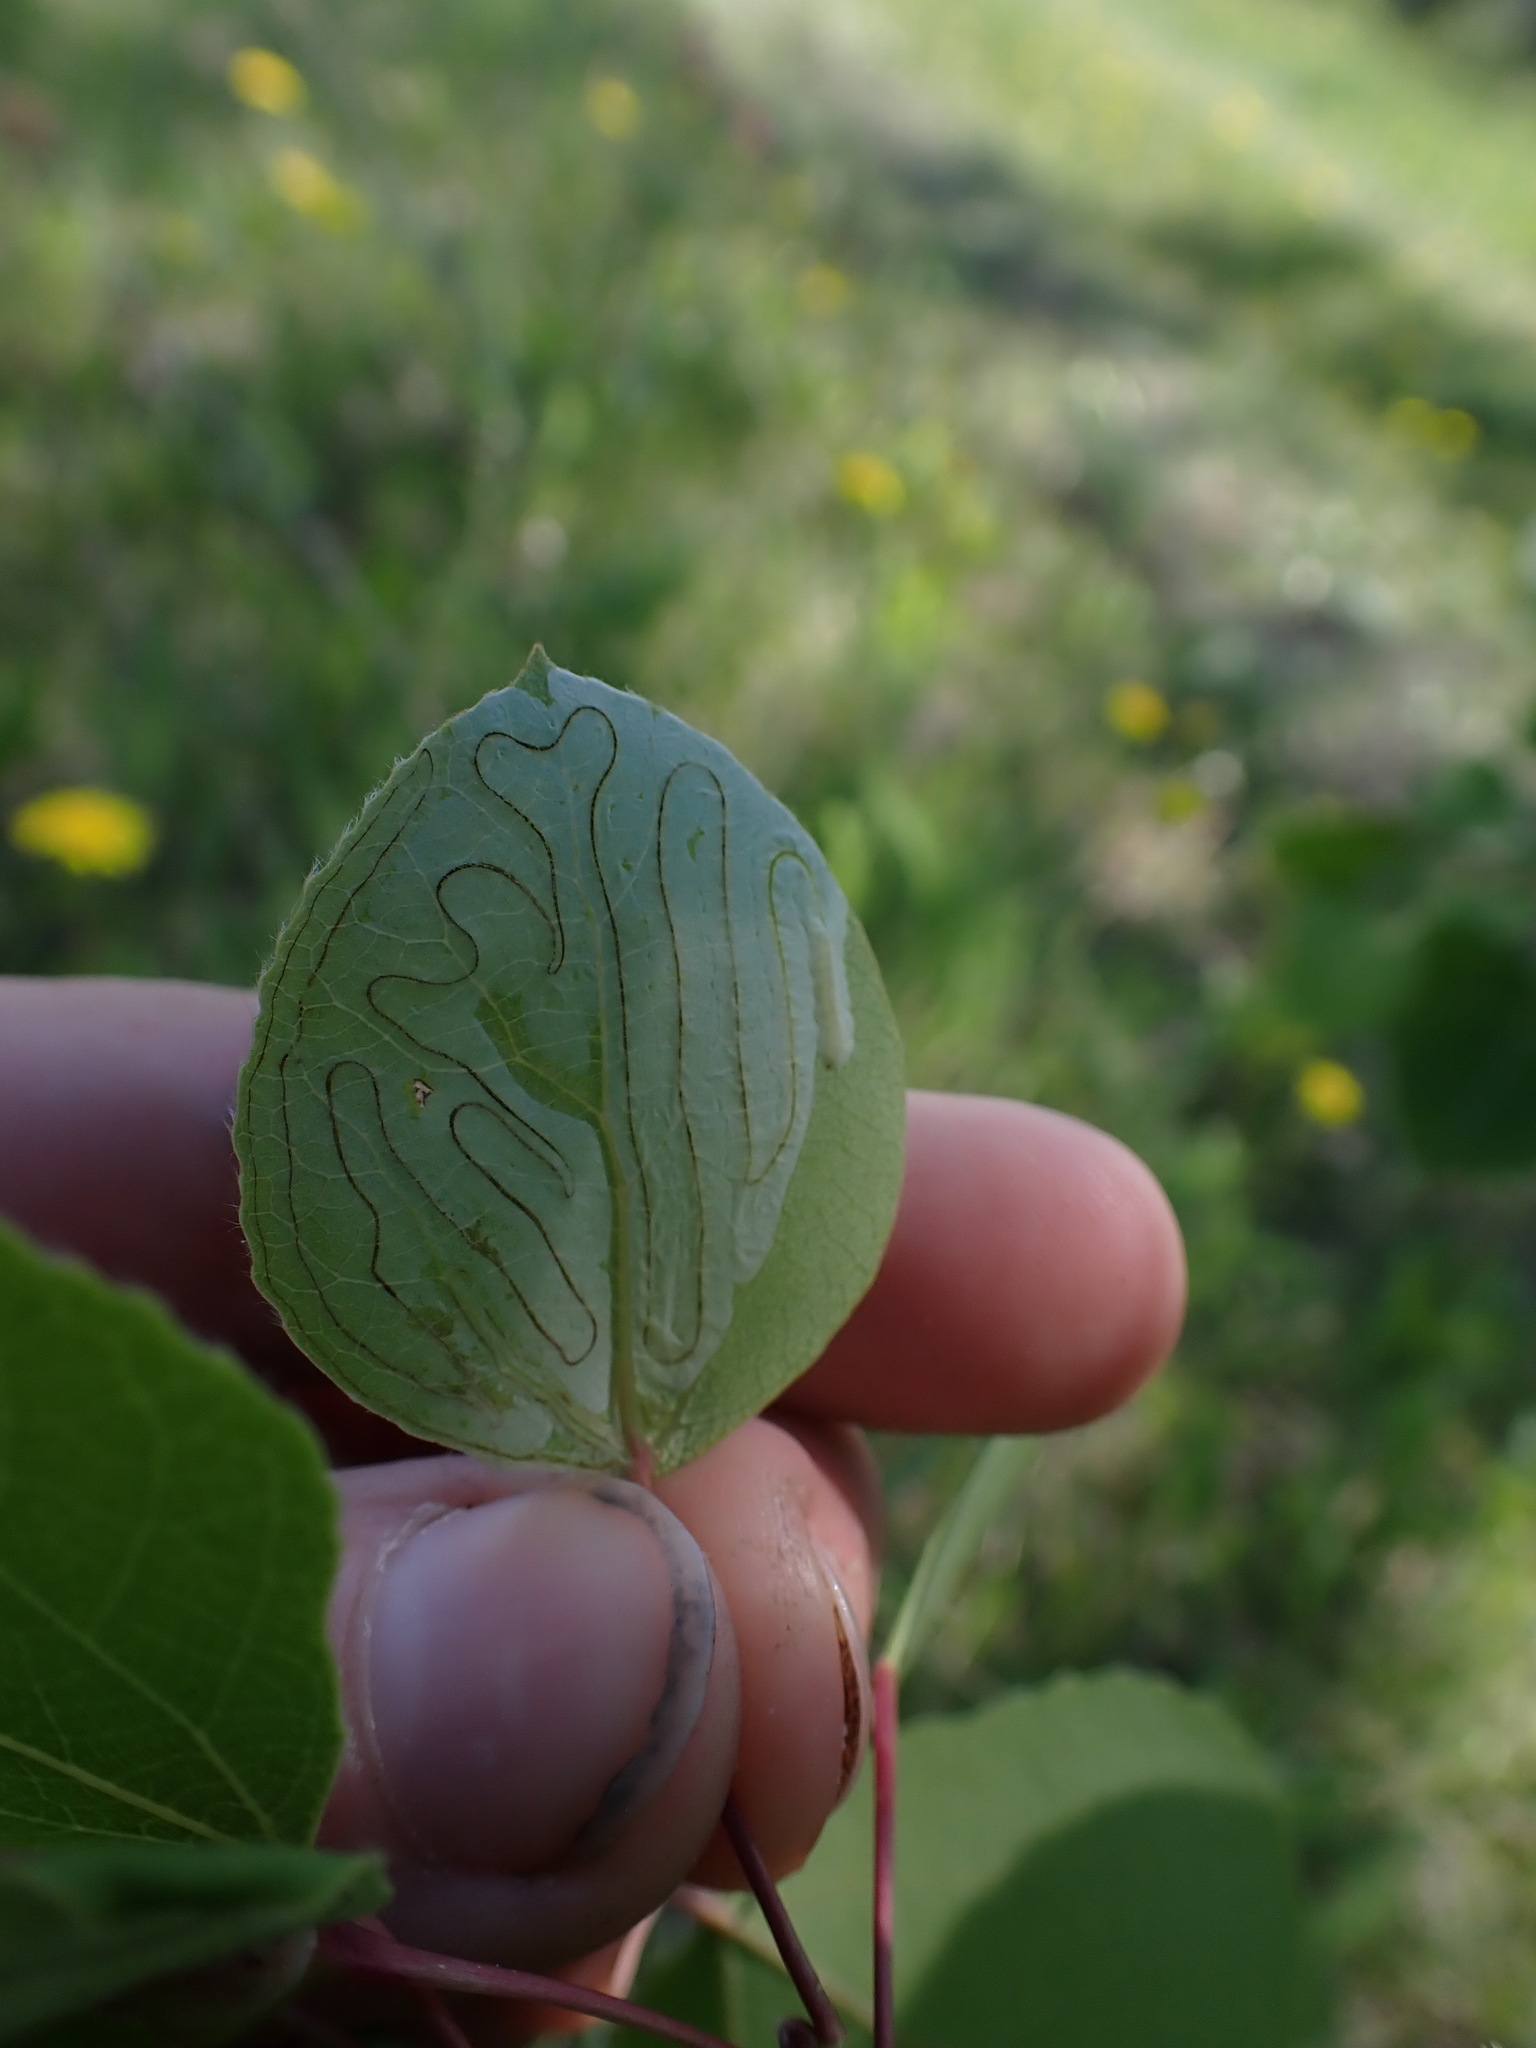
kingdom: Animalia
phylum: Arthropoda
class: Insecta
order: Lepidoptera
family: Gracillariidae
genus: Phyllocnistis
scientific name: Phyllocnistis populiella
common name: Aspen serpentine leafminer moth
